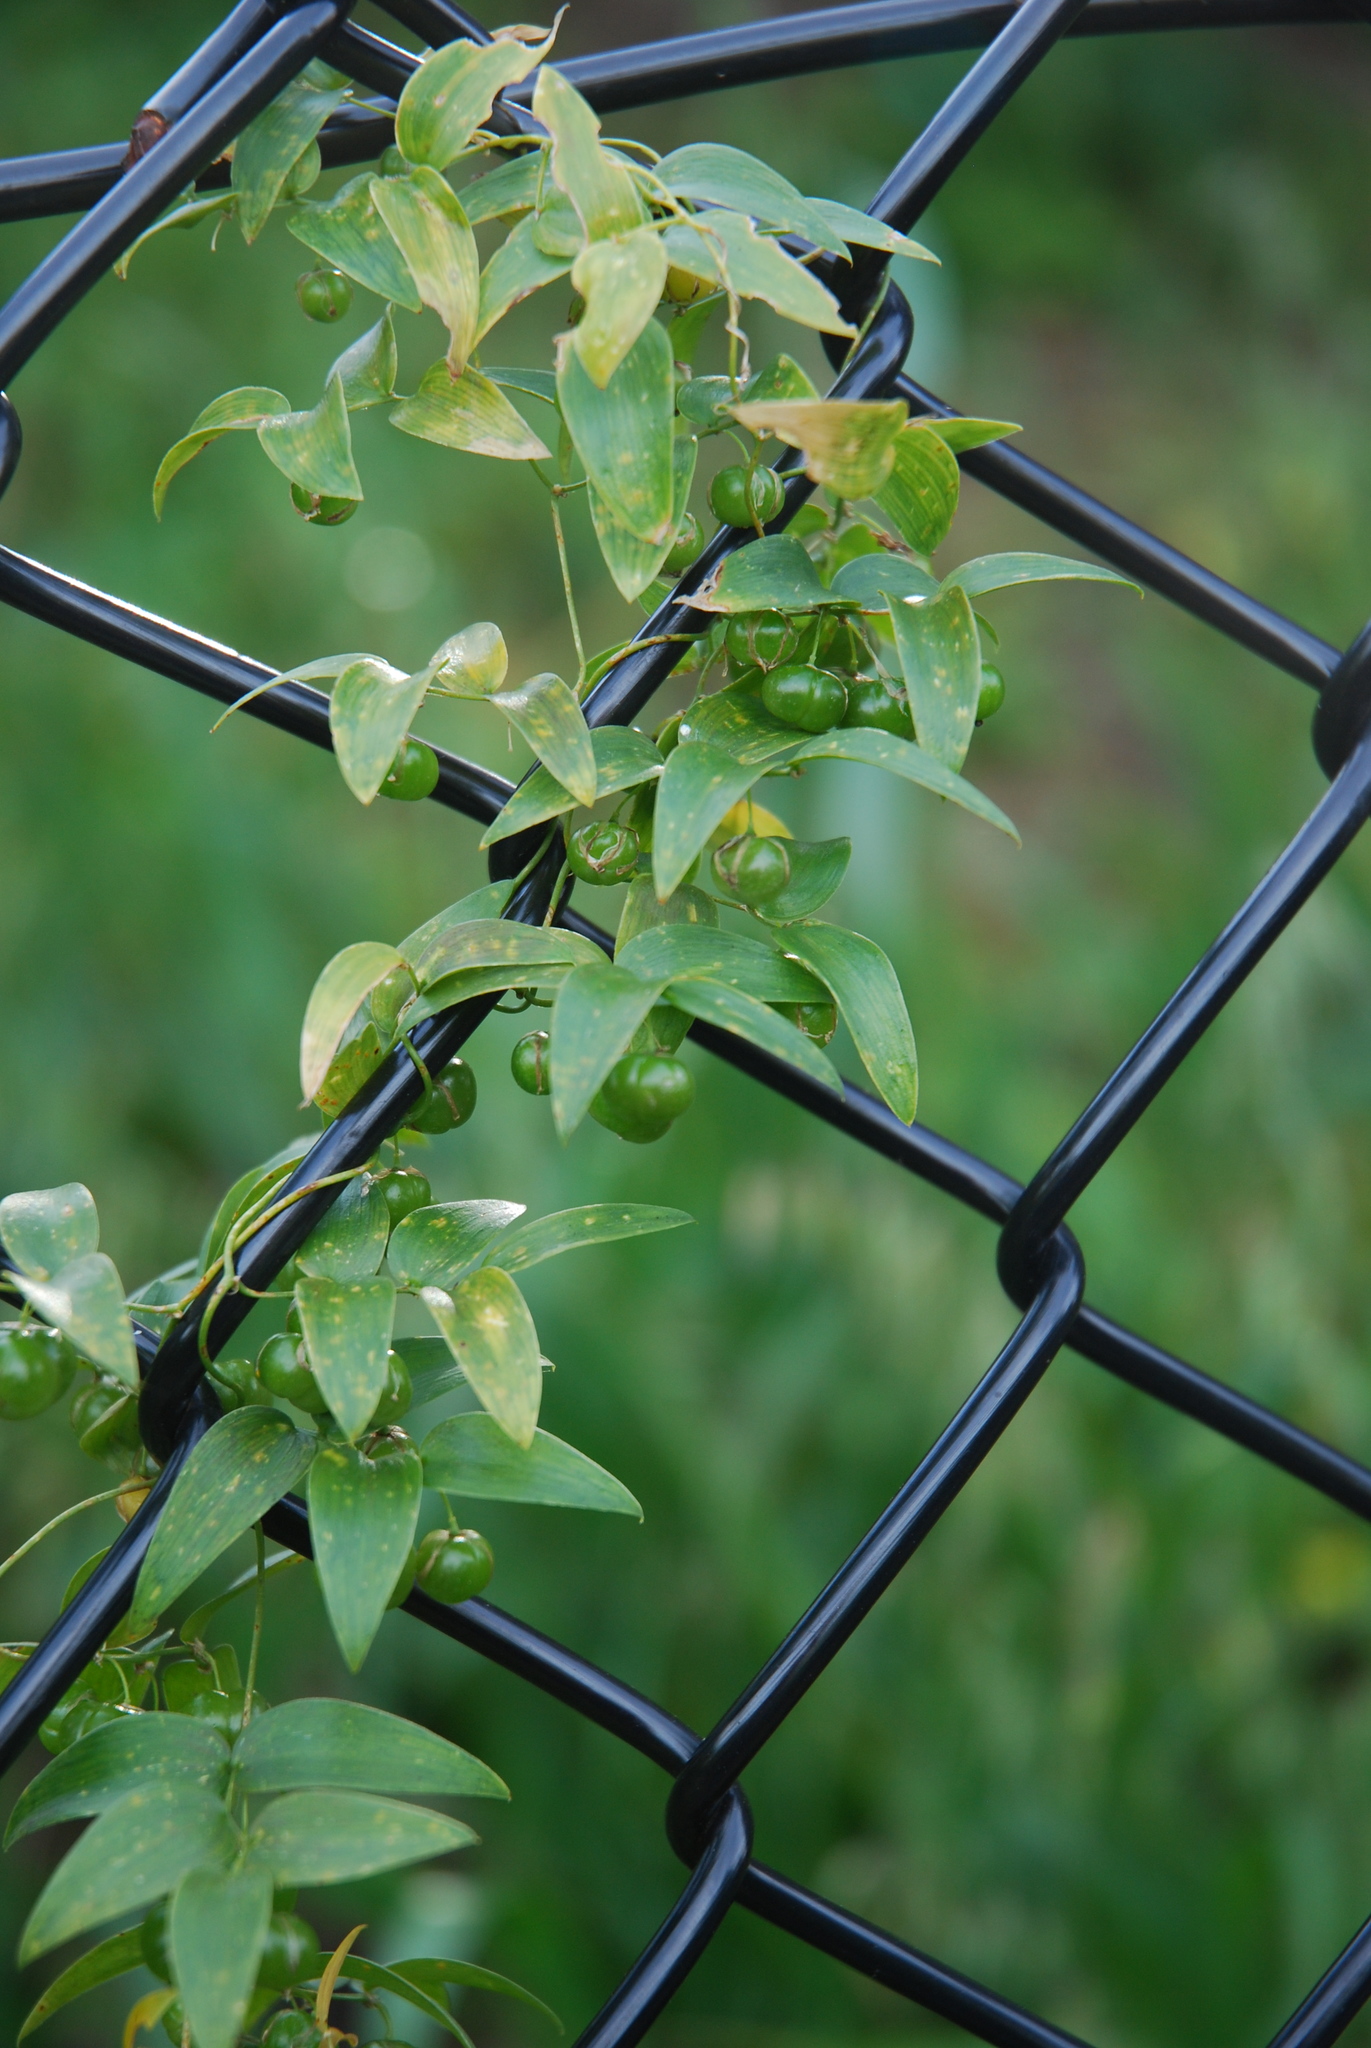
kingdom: Plantae
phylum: Tracheophyta
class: Liliopsida
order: Asparagales
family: Asparagaceae
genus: Asparagus
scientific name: Asparagus asparagoides
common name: African asparagus fern
